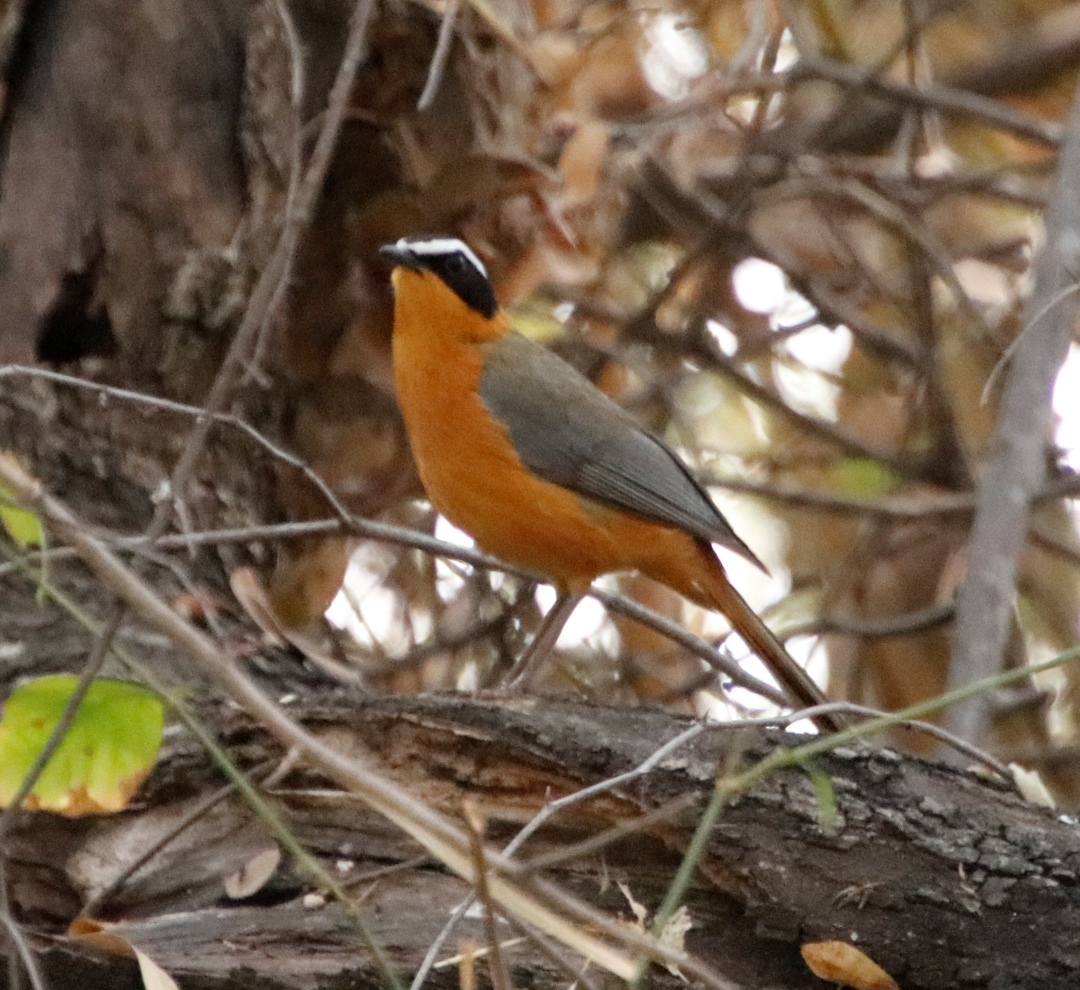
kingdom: Animalia
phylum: Chordata
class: Aves
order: Passeriformes
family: Muscicapidae
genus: Cossypha
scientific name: Cossypha heuglini
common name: White-browed robin-chat
